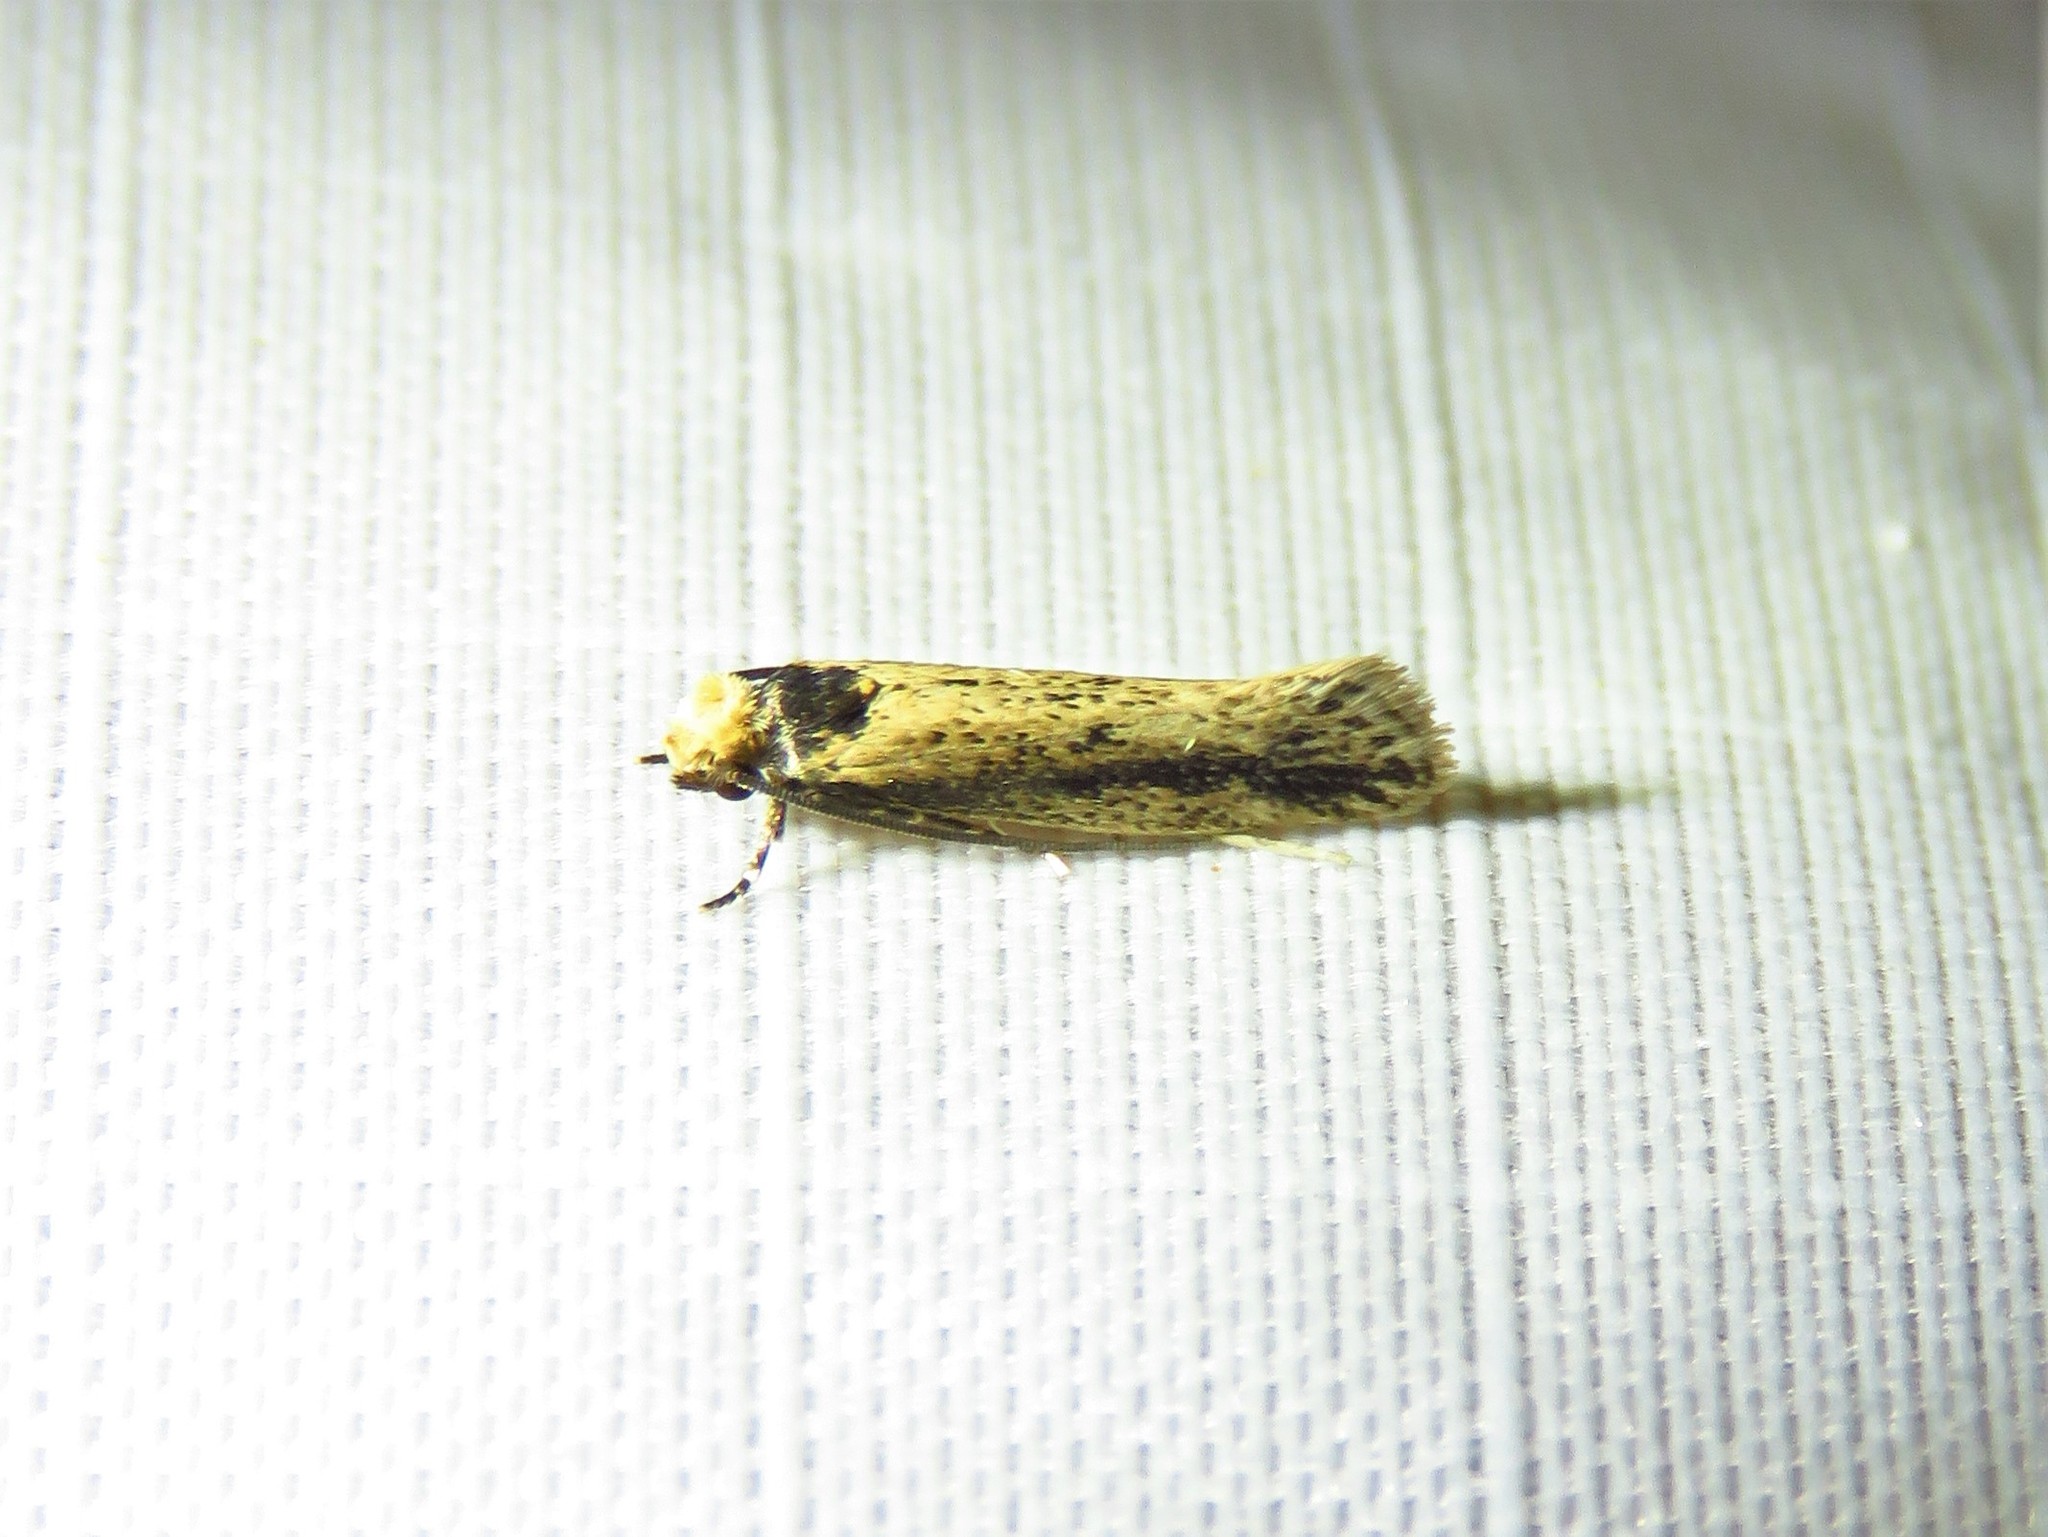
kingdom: Animalia
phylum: Arthropoda
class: Insecta
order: Lepidoptera
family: Tineidae
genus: Tinea
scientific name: Tinea apicimaculella
